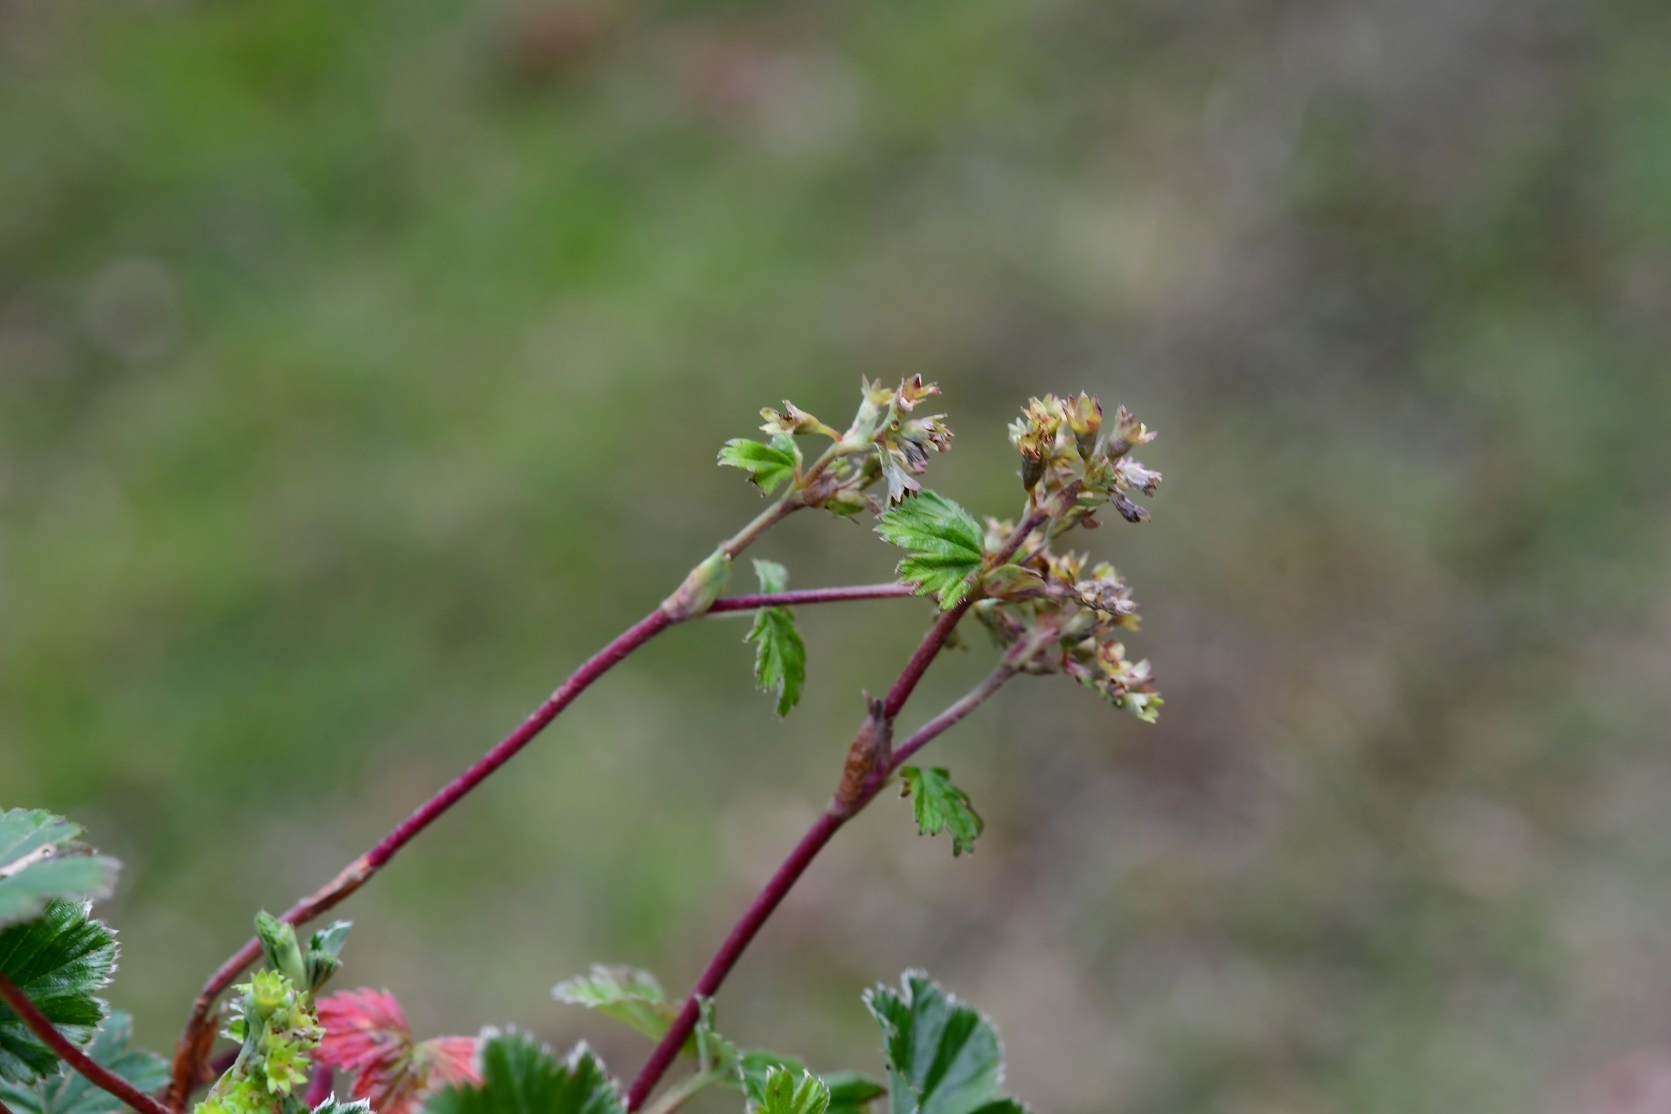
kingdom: Plantae
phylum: Tracheophyta
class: Magnoliopsida
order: Rosales
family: Rosaceae
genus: Lachemilla
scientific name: Lachemilla pectinata
